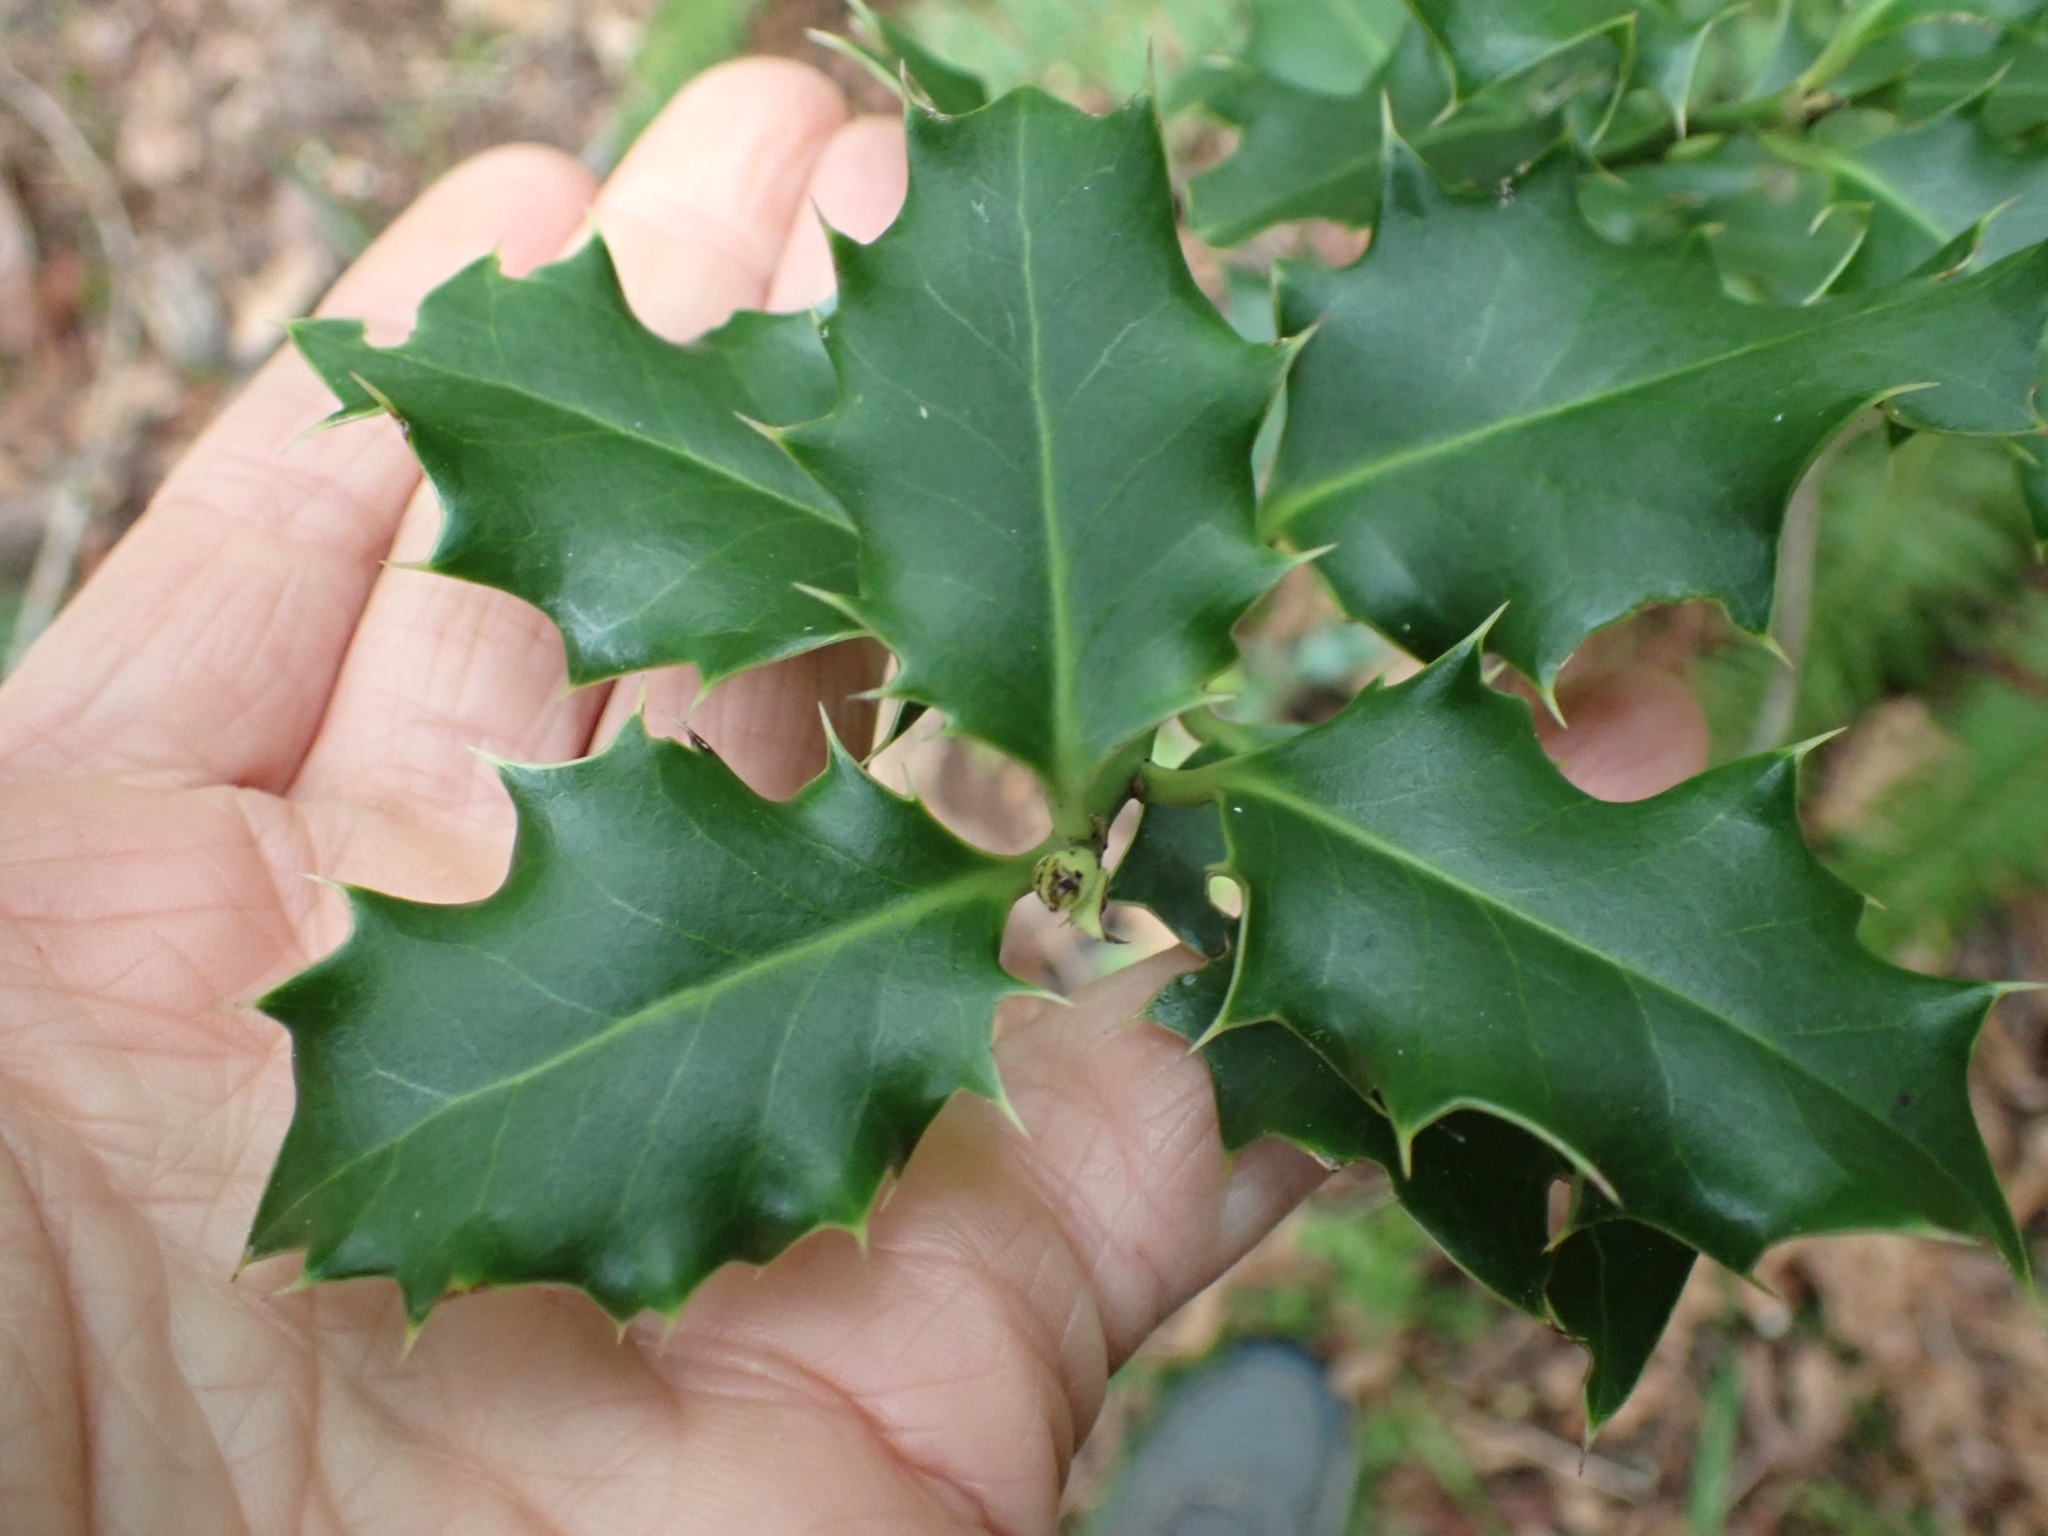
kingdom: Plantae
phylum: Tracheophyta
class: Magnoliopsida
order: Aquifoliales
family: Aquifoliaceae
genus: Ilex
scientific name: Ilex aquifolium
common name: English holly
